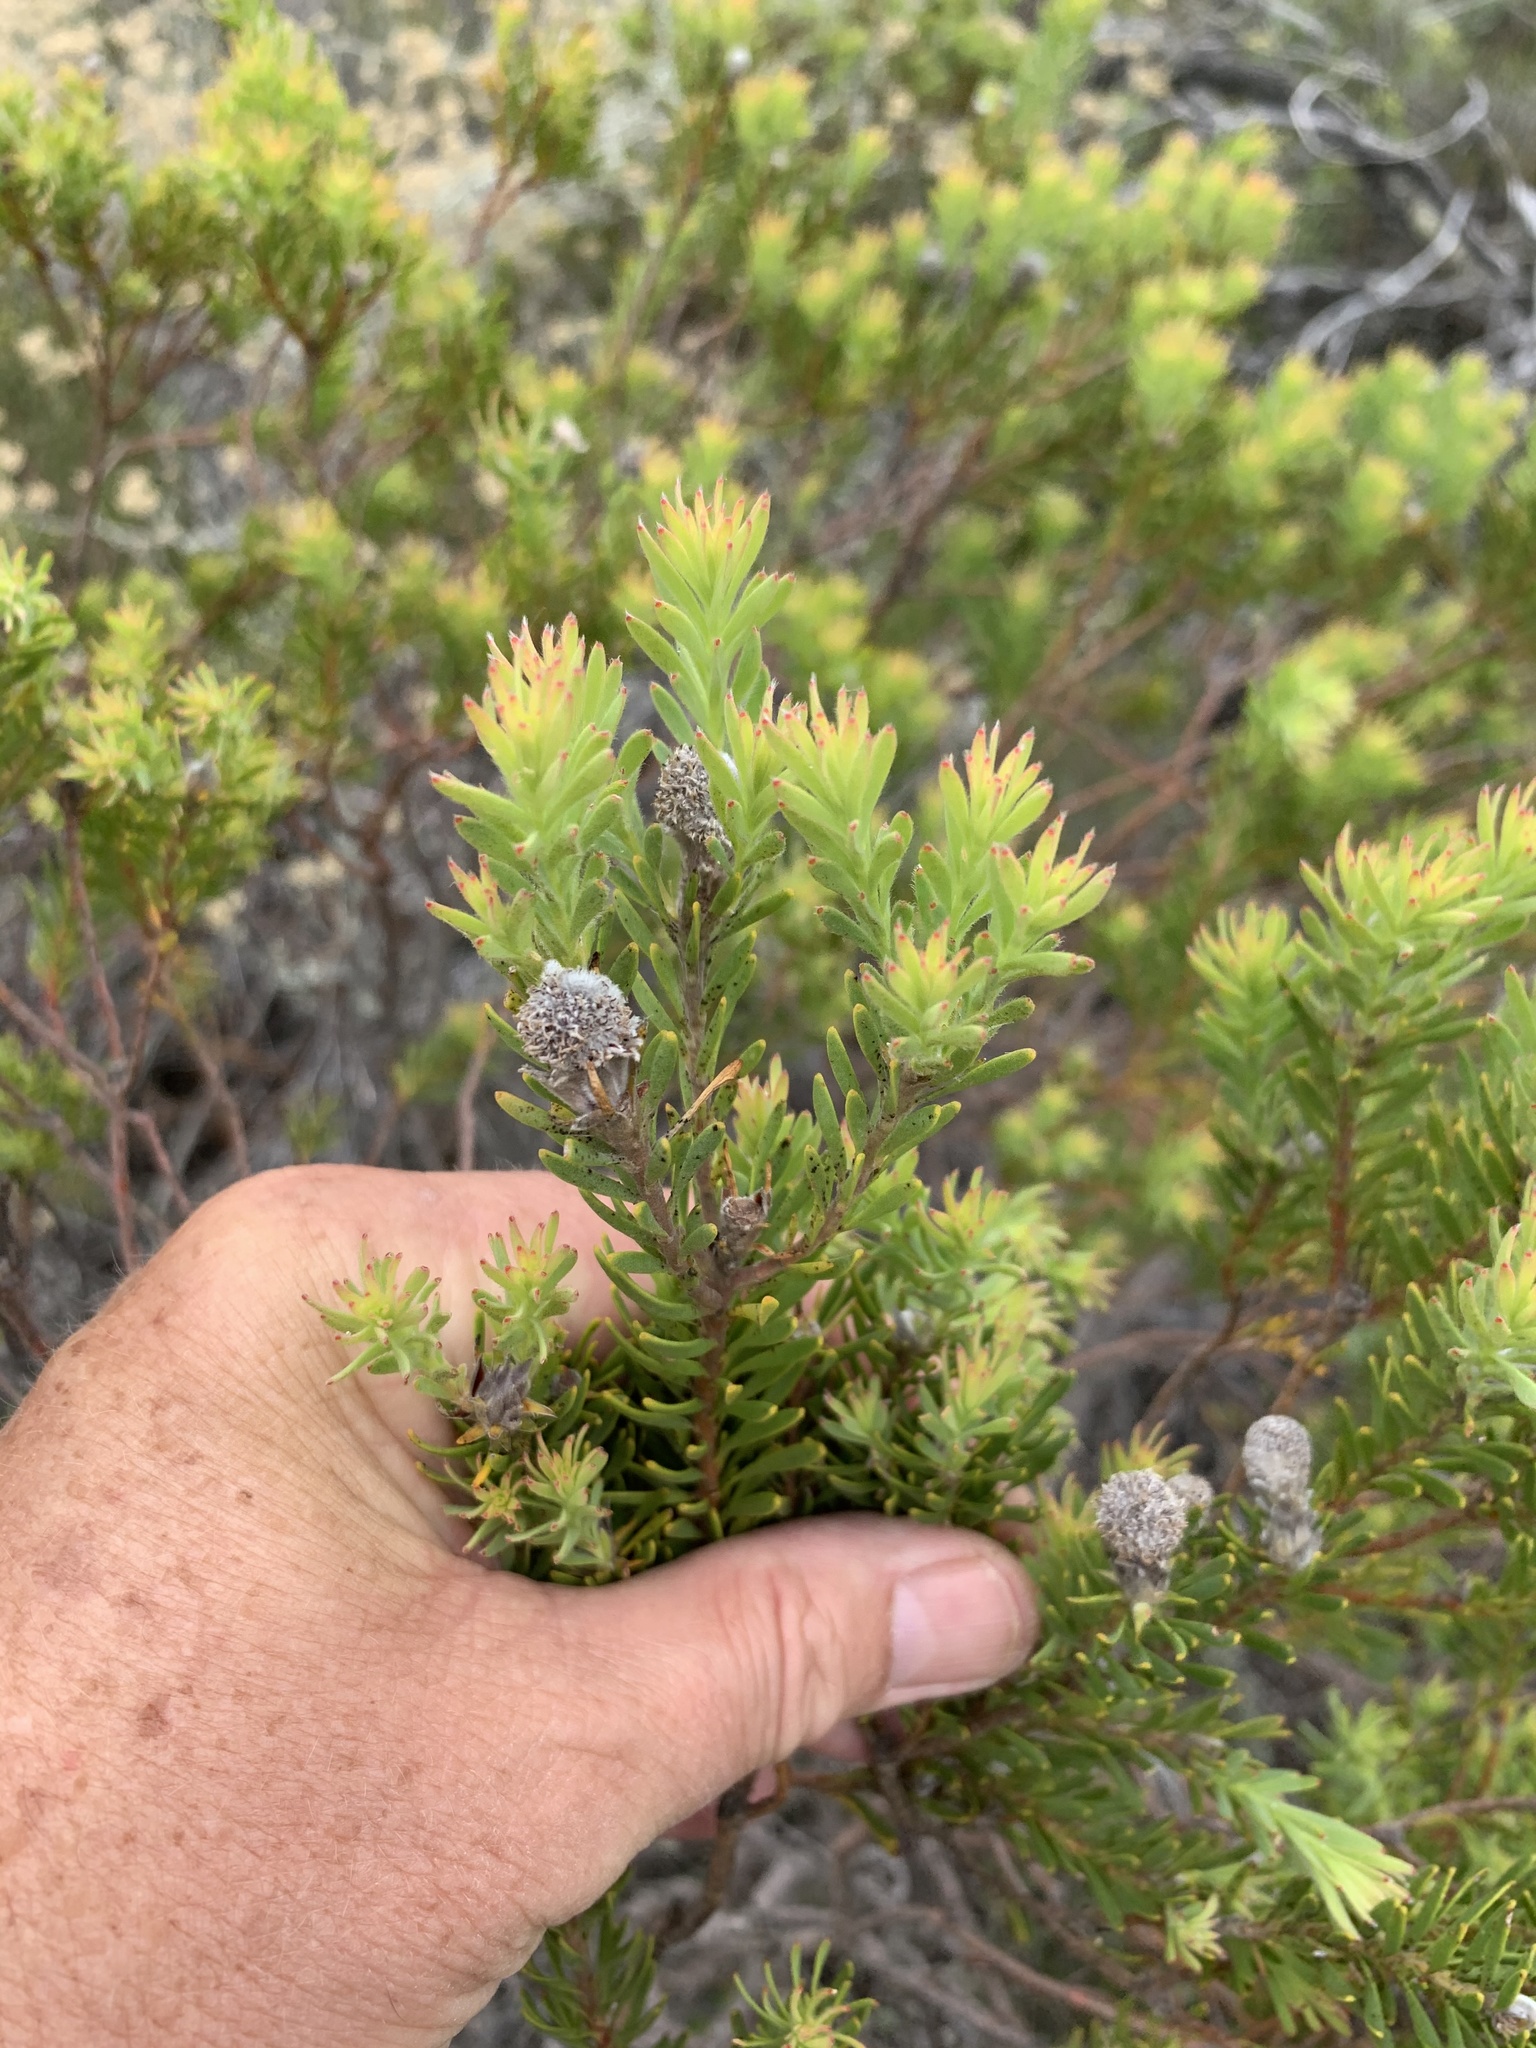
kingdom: Plantae
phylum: Tracheophyta
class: Magnoliopsida
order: Proteales
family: Proteaceae
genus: Leucadendron
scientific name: Leucadendron linifolium
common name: Line-leaf conebush
